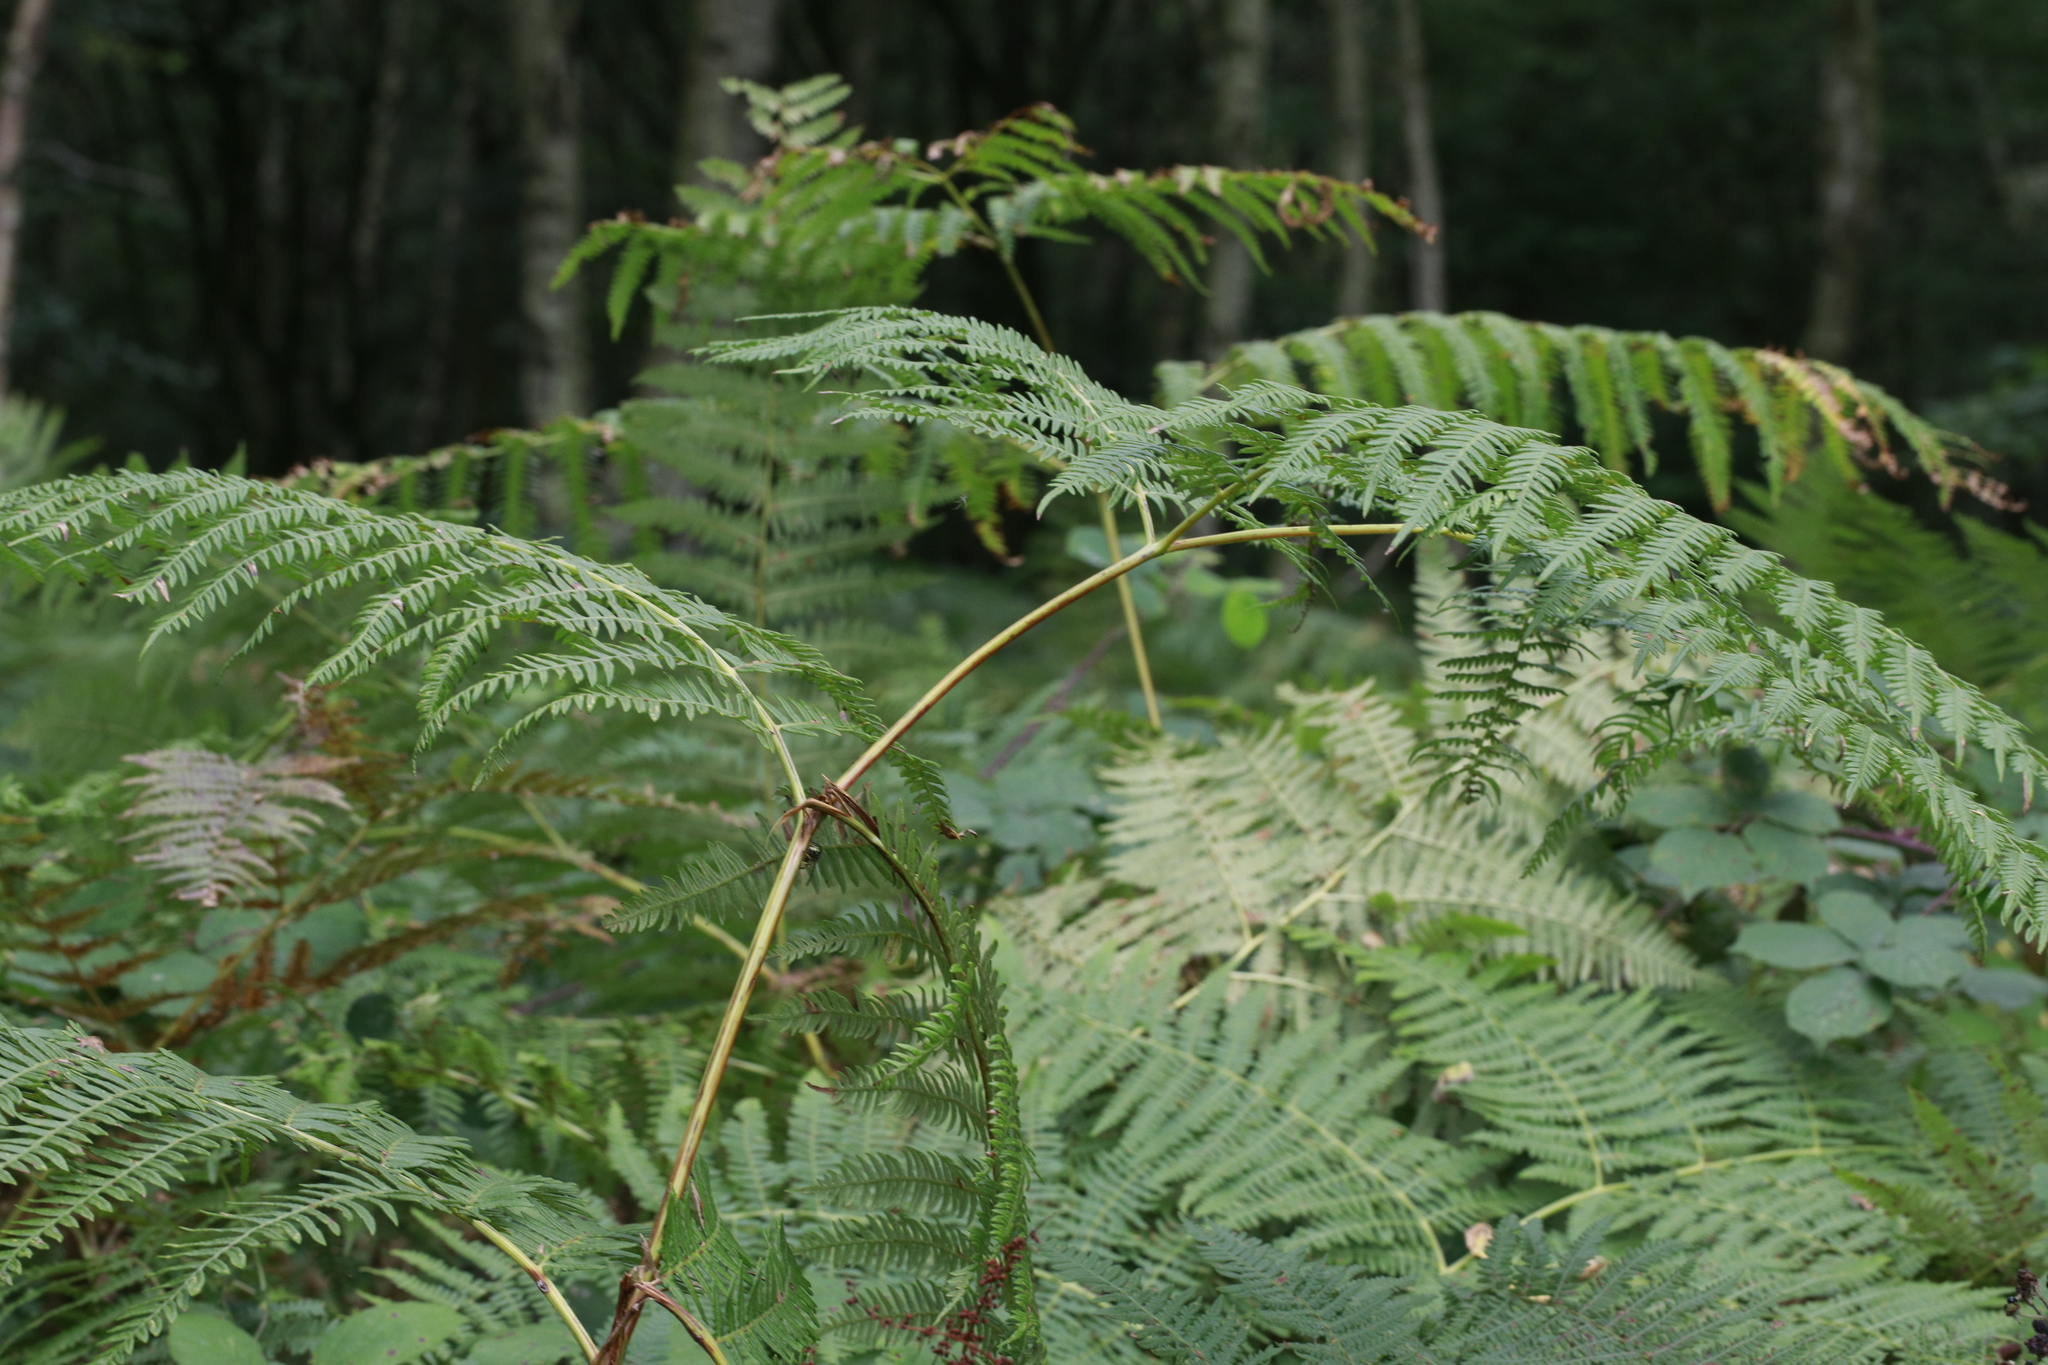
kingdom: Plantae
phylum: Tracheophyta
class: Polypodiopsida
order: Polypodiales
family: Dennstaedtiaceae
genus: Pteridium
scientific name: Pteridium aquilinum
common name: Bracken
